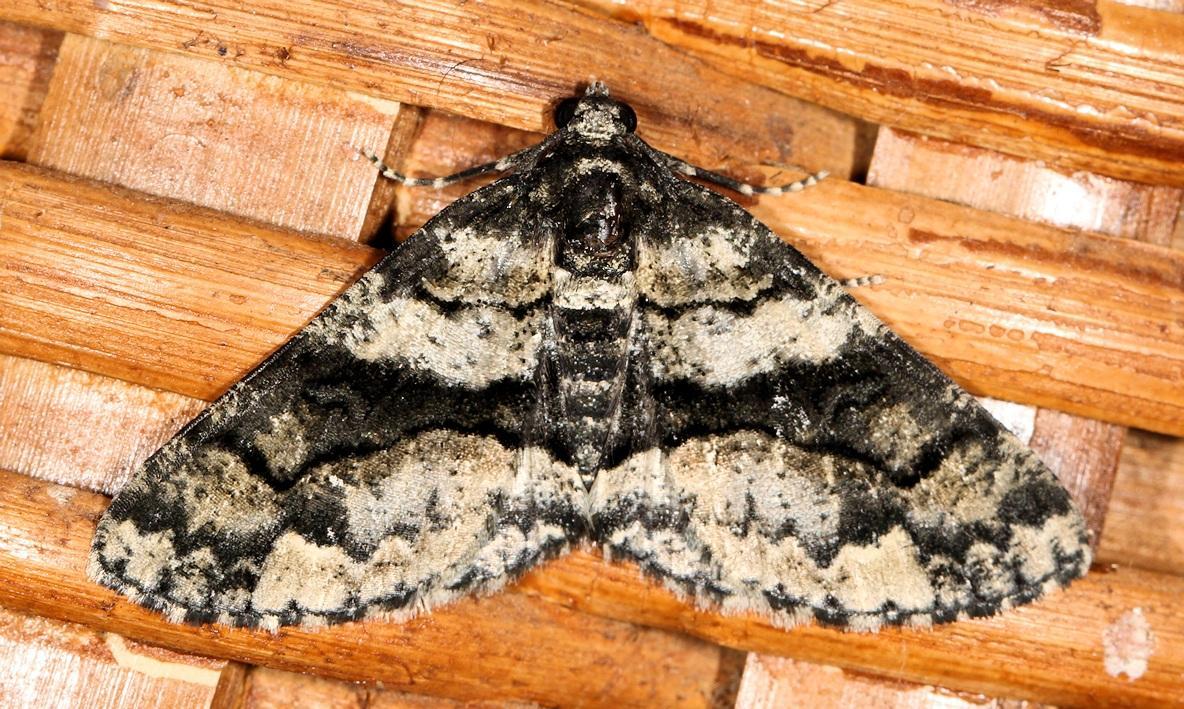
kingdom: Animalia
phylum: Arthropoda
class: Insecta
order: Lepidoptera
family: Geometridae
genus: Phthonandria
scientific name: Phthonandria pinguis
